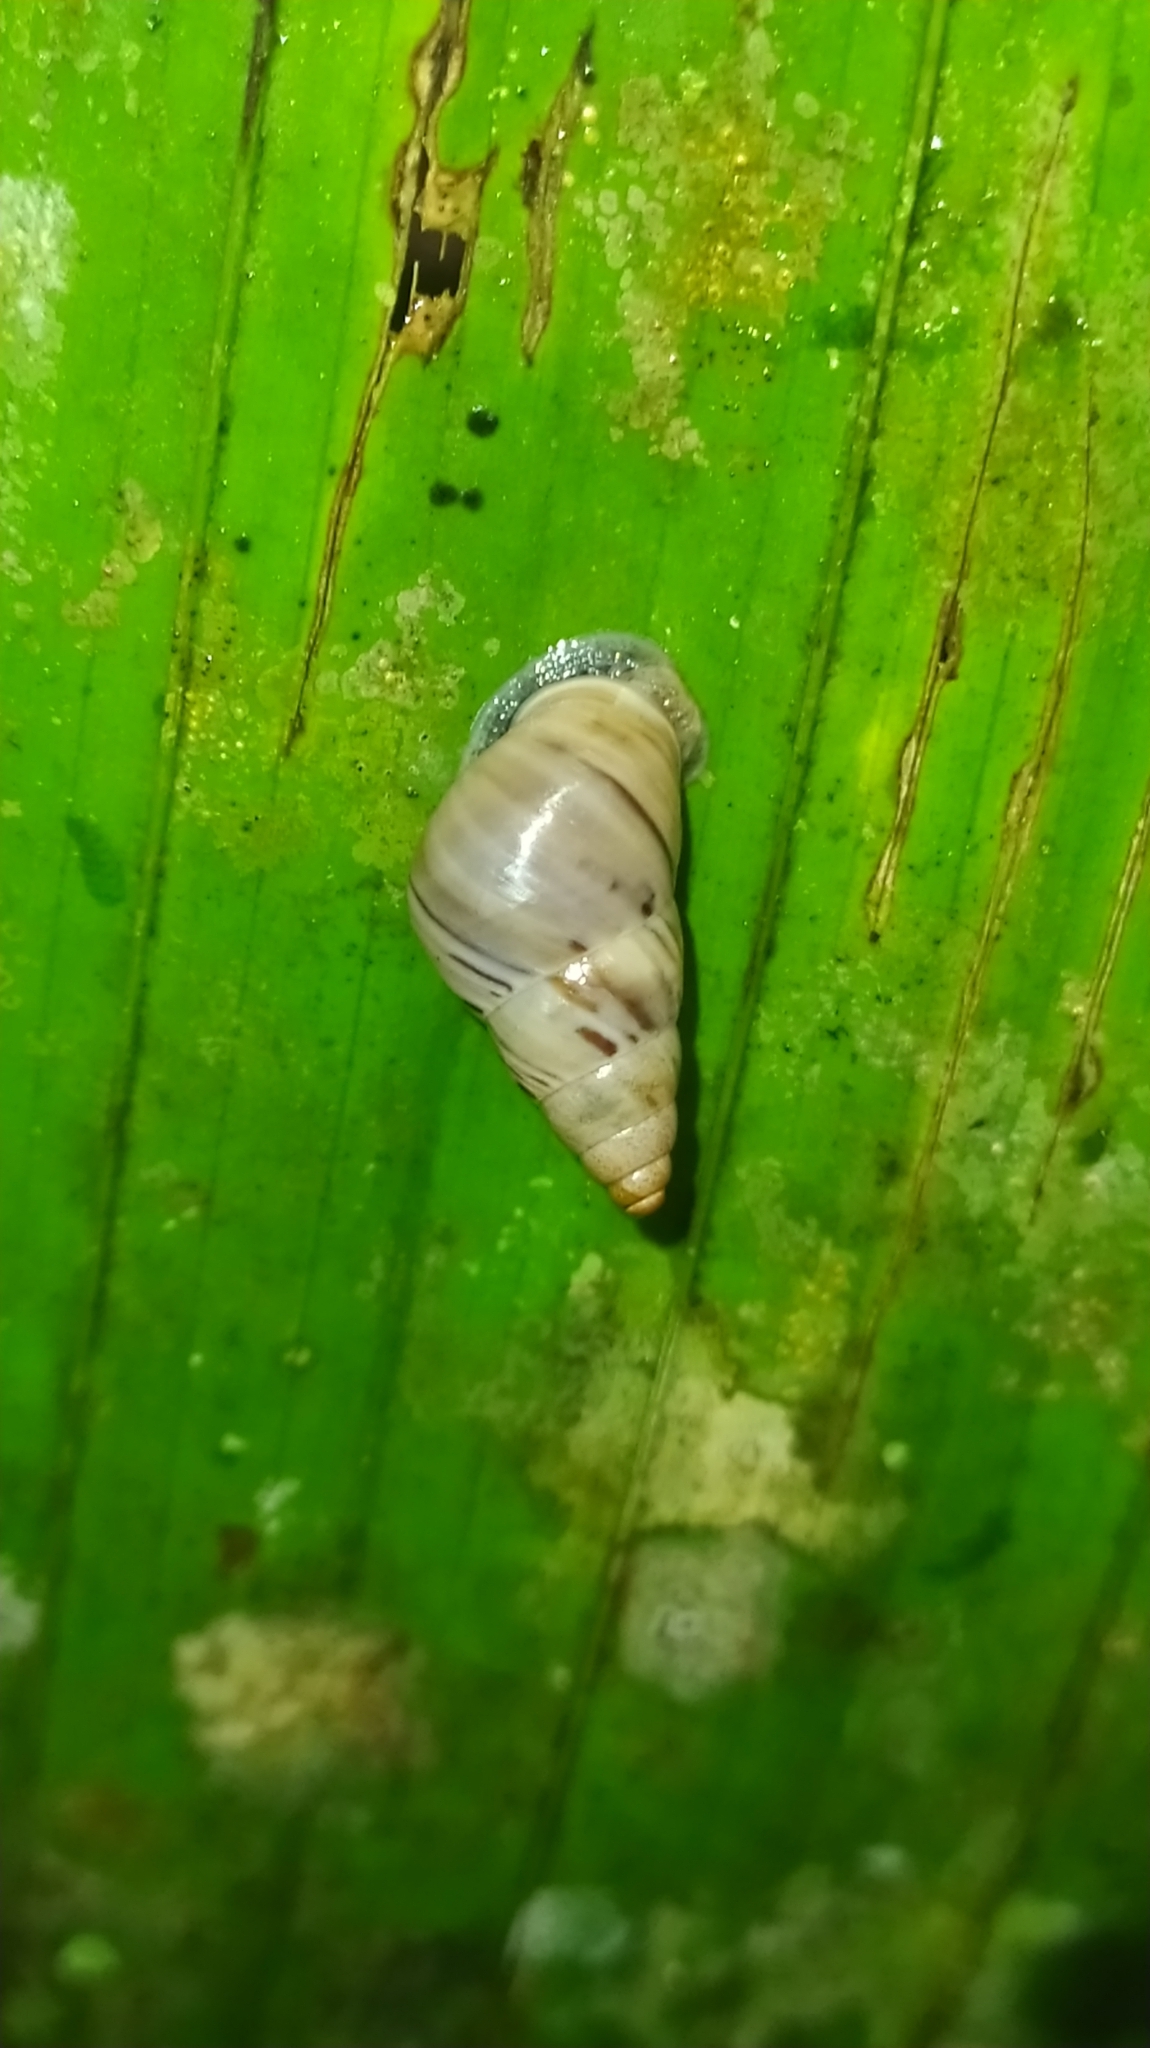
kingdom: Animalia
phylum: Mollusca
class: Gastropoda
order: Stylommatophora
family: Simpulopsidae
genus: Leiostracus
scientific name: Leiostracus demerarensis
